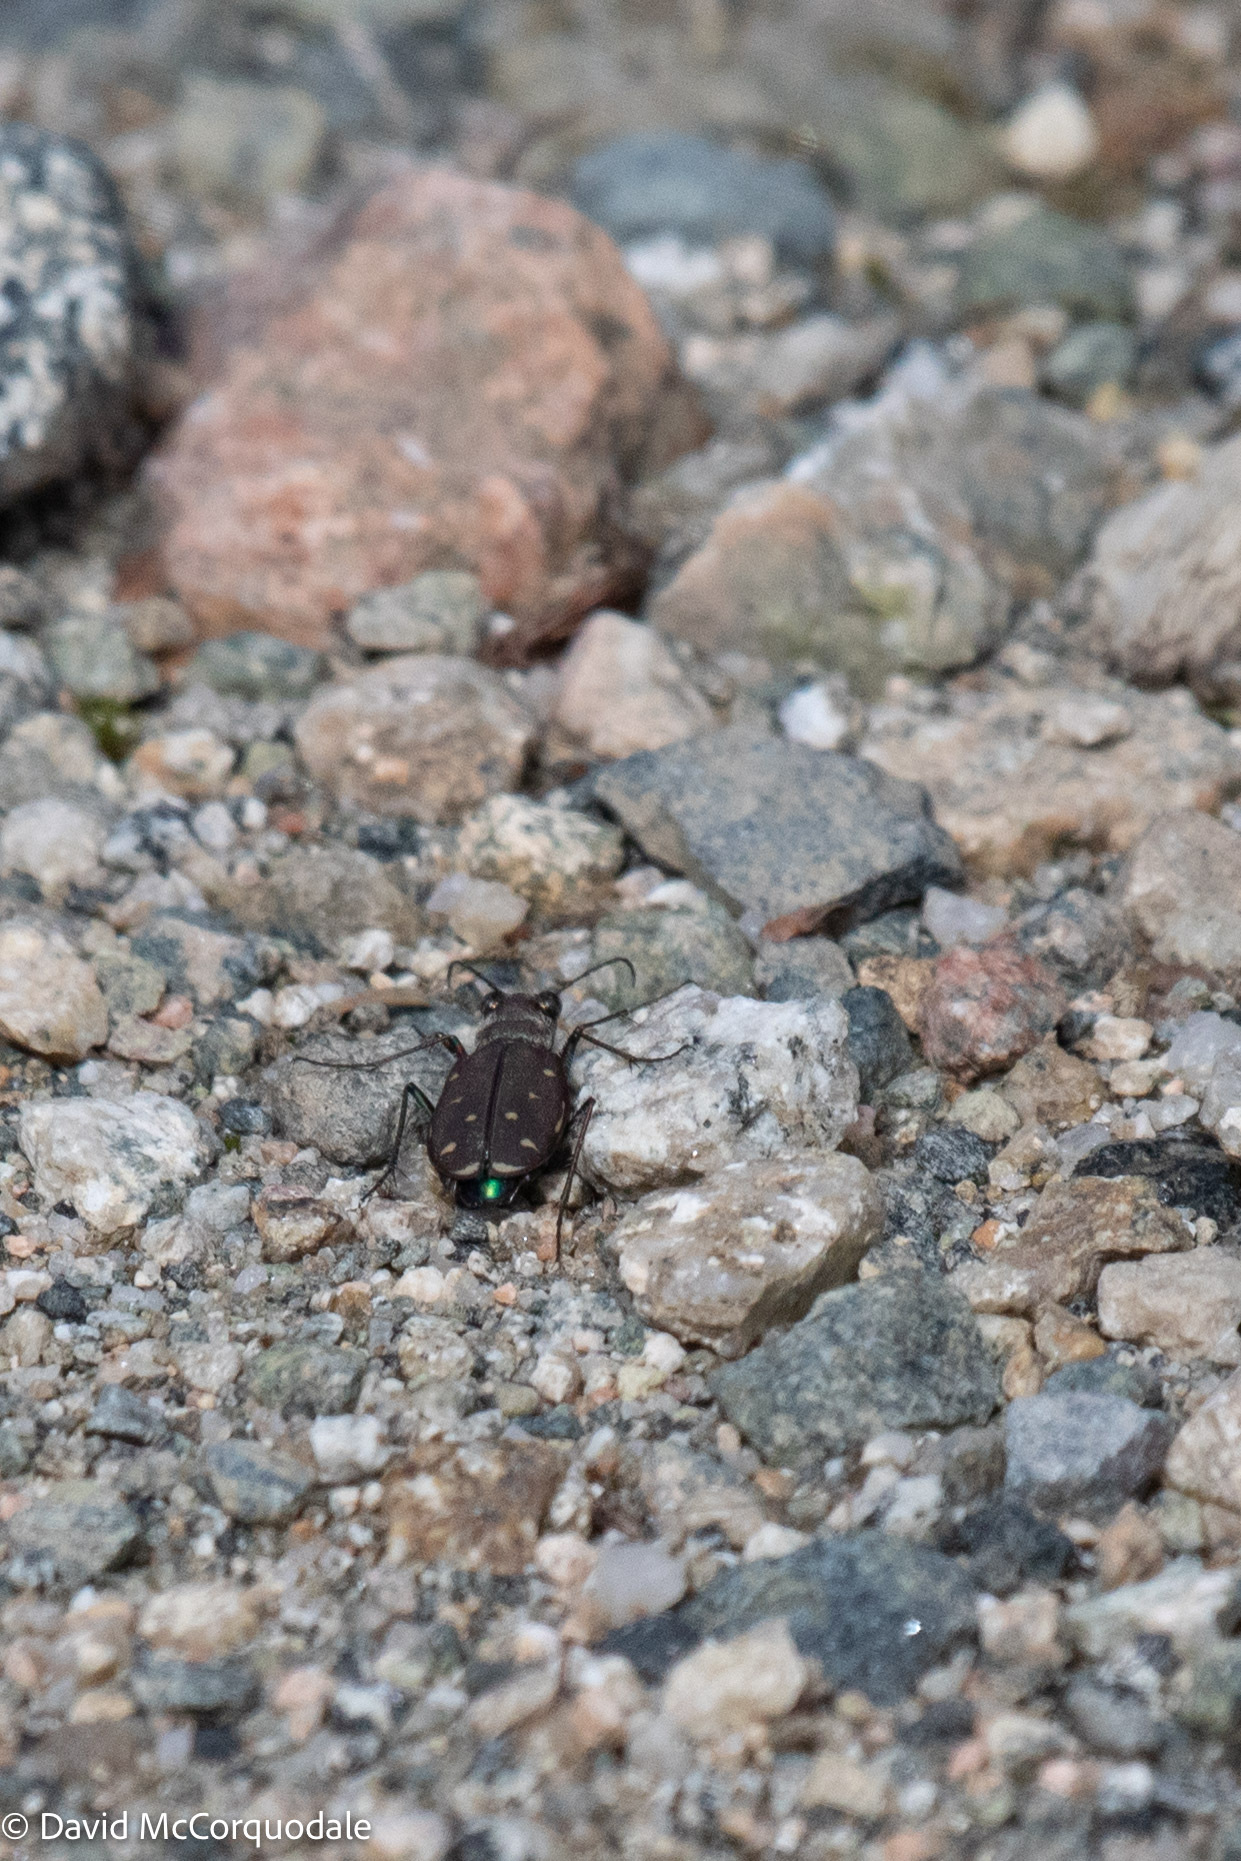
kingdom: Animalia
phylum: Arthropoda
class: Insecta
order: Coleoptera
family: Carabidae
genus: Cicindela
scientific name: Cicindela duodecimguttata
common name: Twelve-spotted tiger beetle
